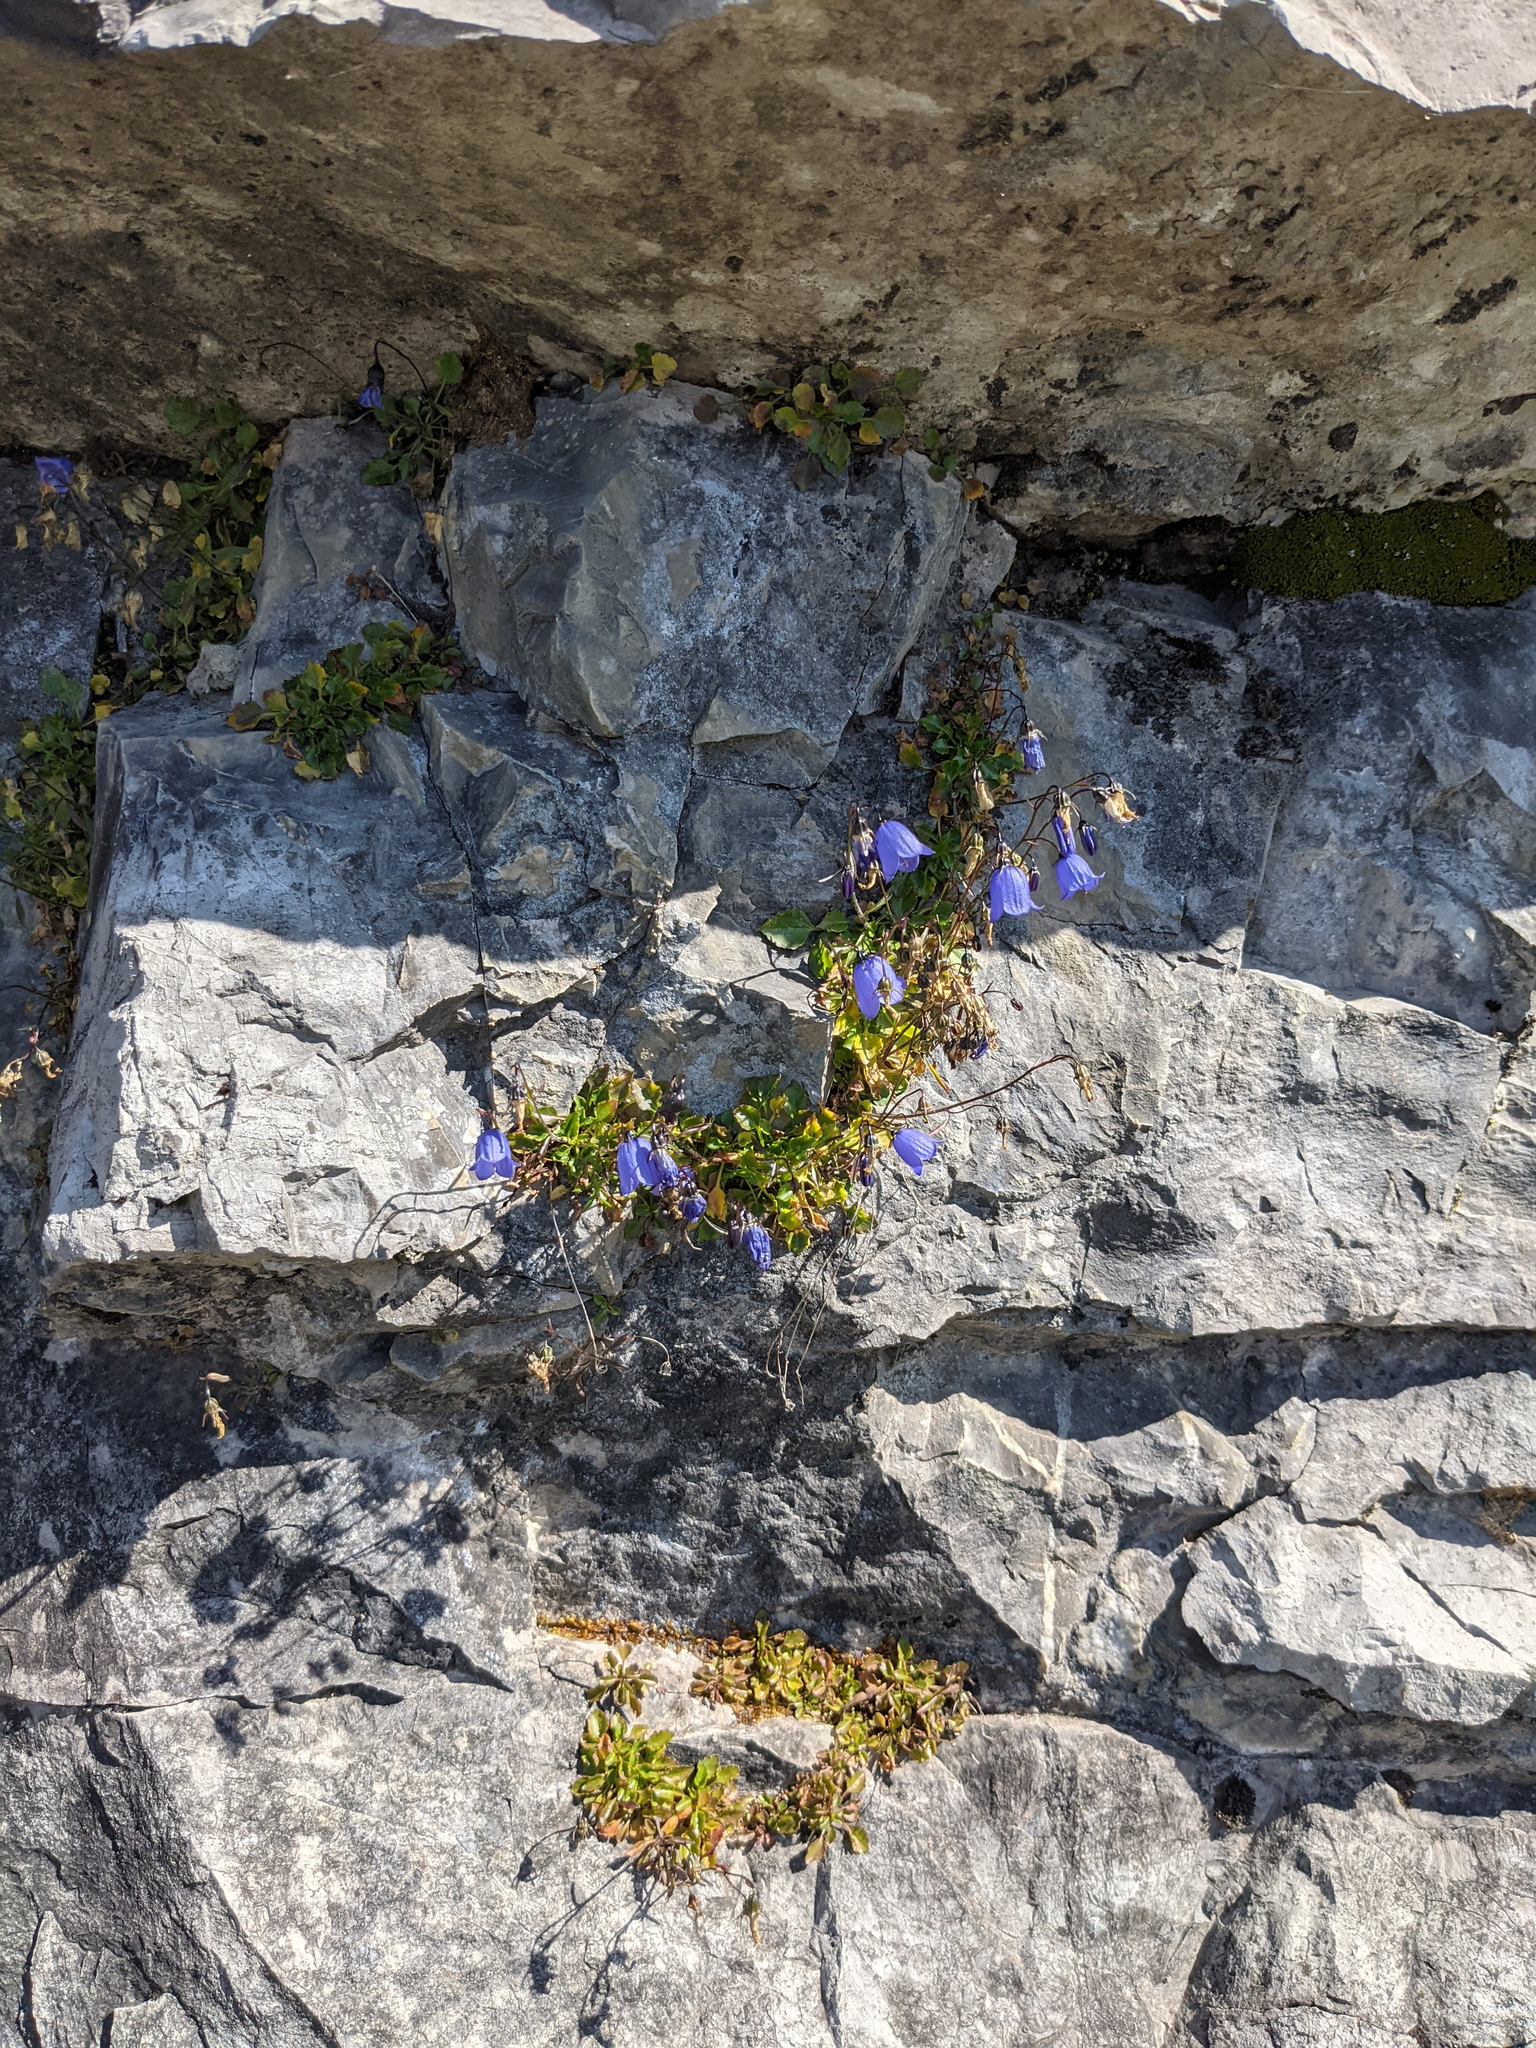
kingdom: Plantae
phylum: Tracheophyta
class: Magnoliopsida
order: Asterales
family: Campanulaceae
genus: Campanula
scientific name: Campanula cochleariifolia
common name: Fairies'-thimbles
